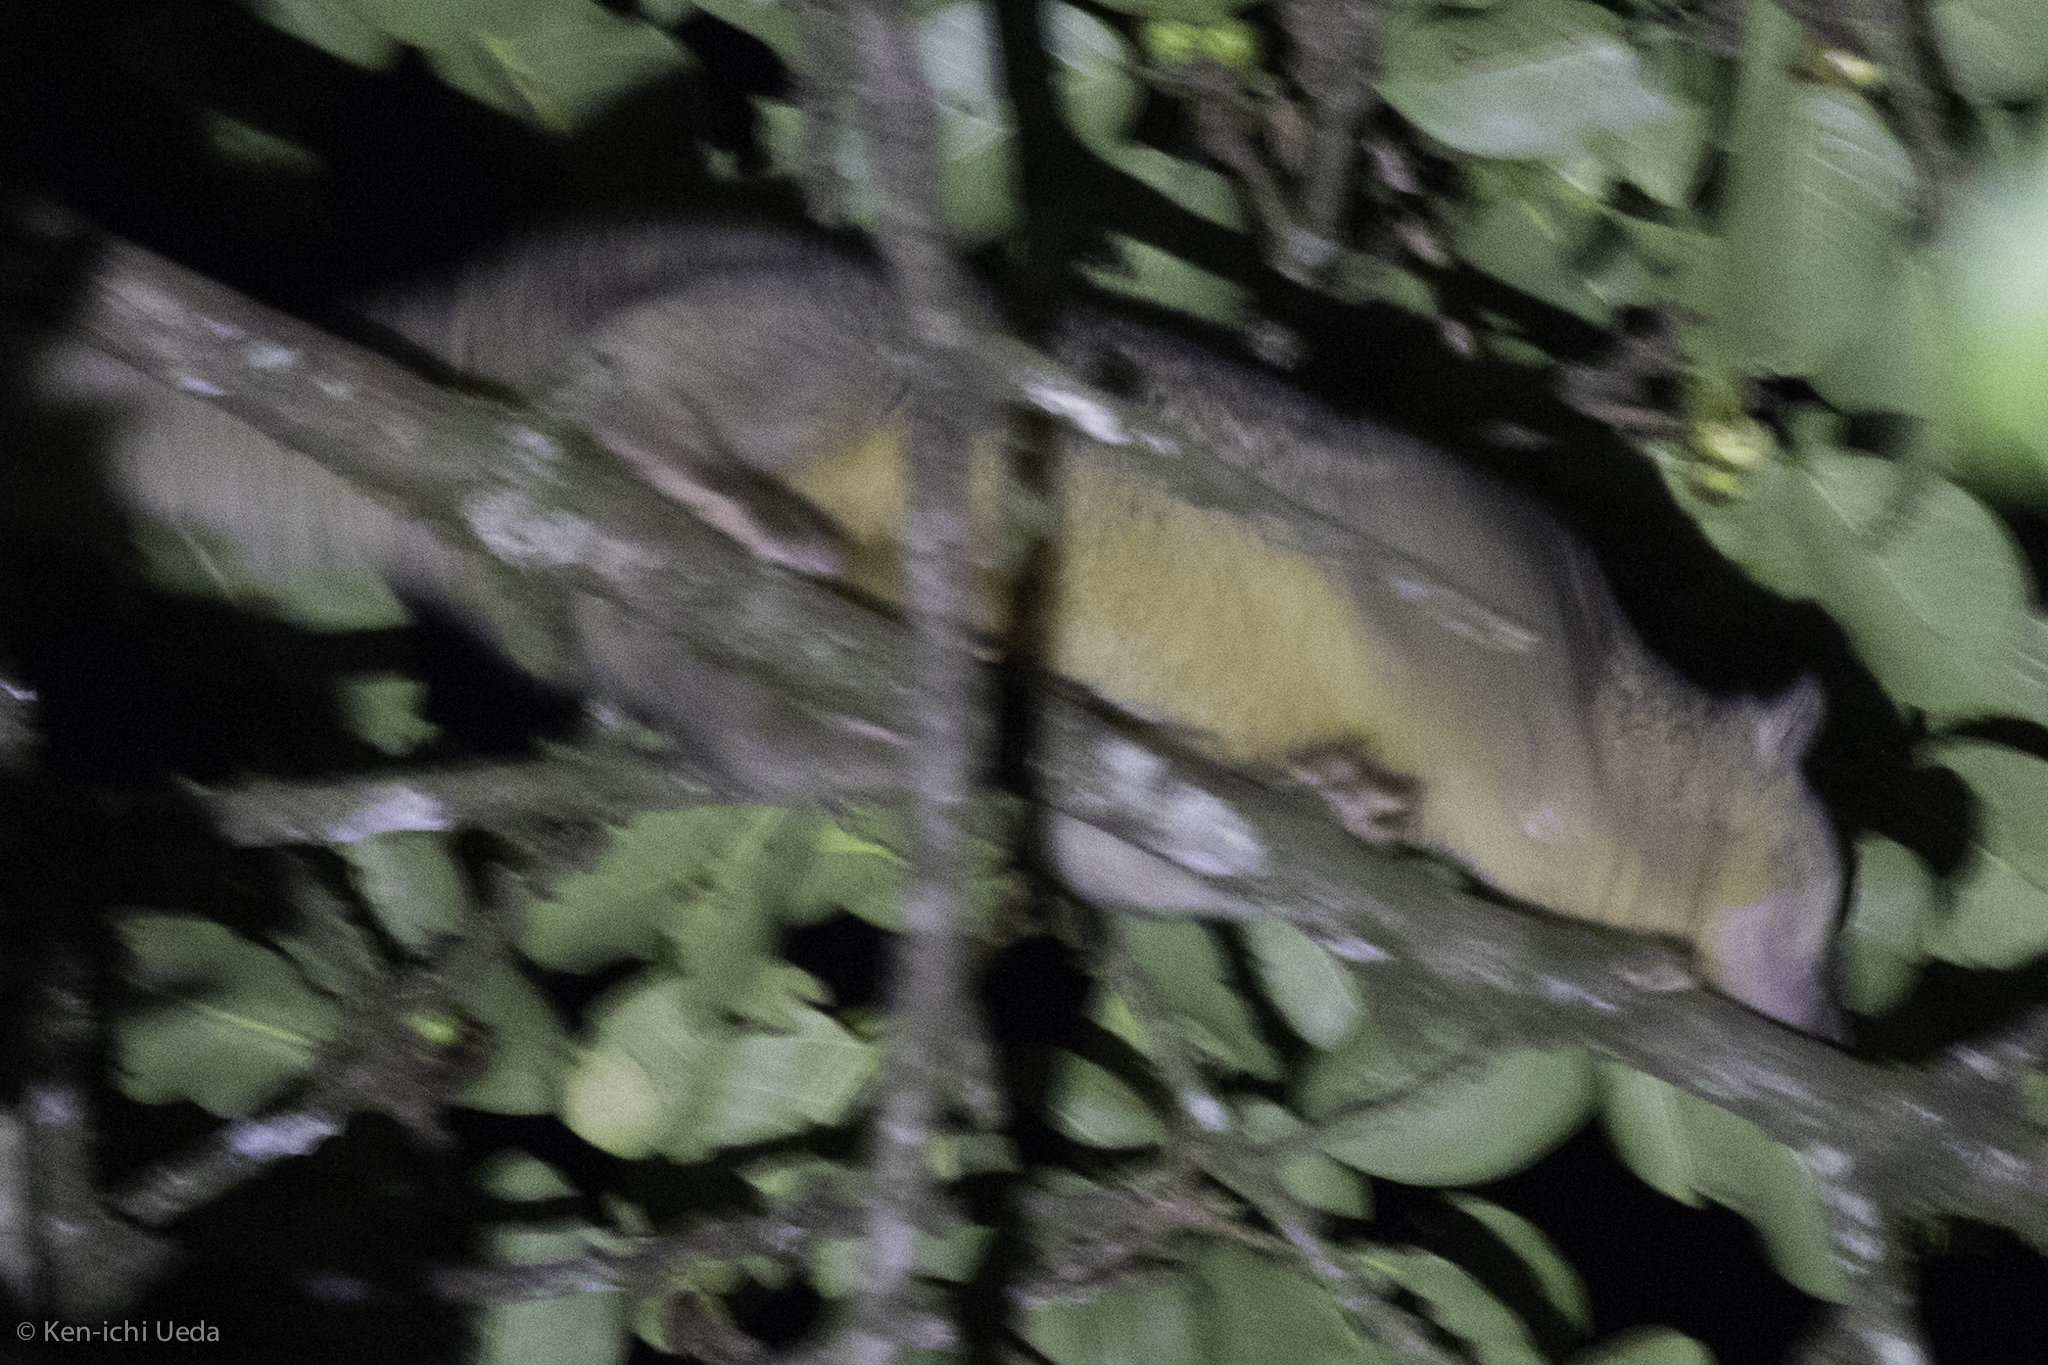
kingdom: Animalia
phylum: Chordata
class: Mammalia
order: Carnivora
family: Procyonidae
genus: Bassaricyon
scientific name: Bassaricyon gabbii
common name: Olingo
